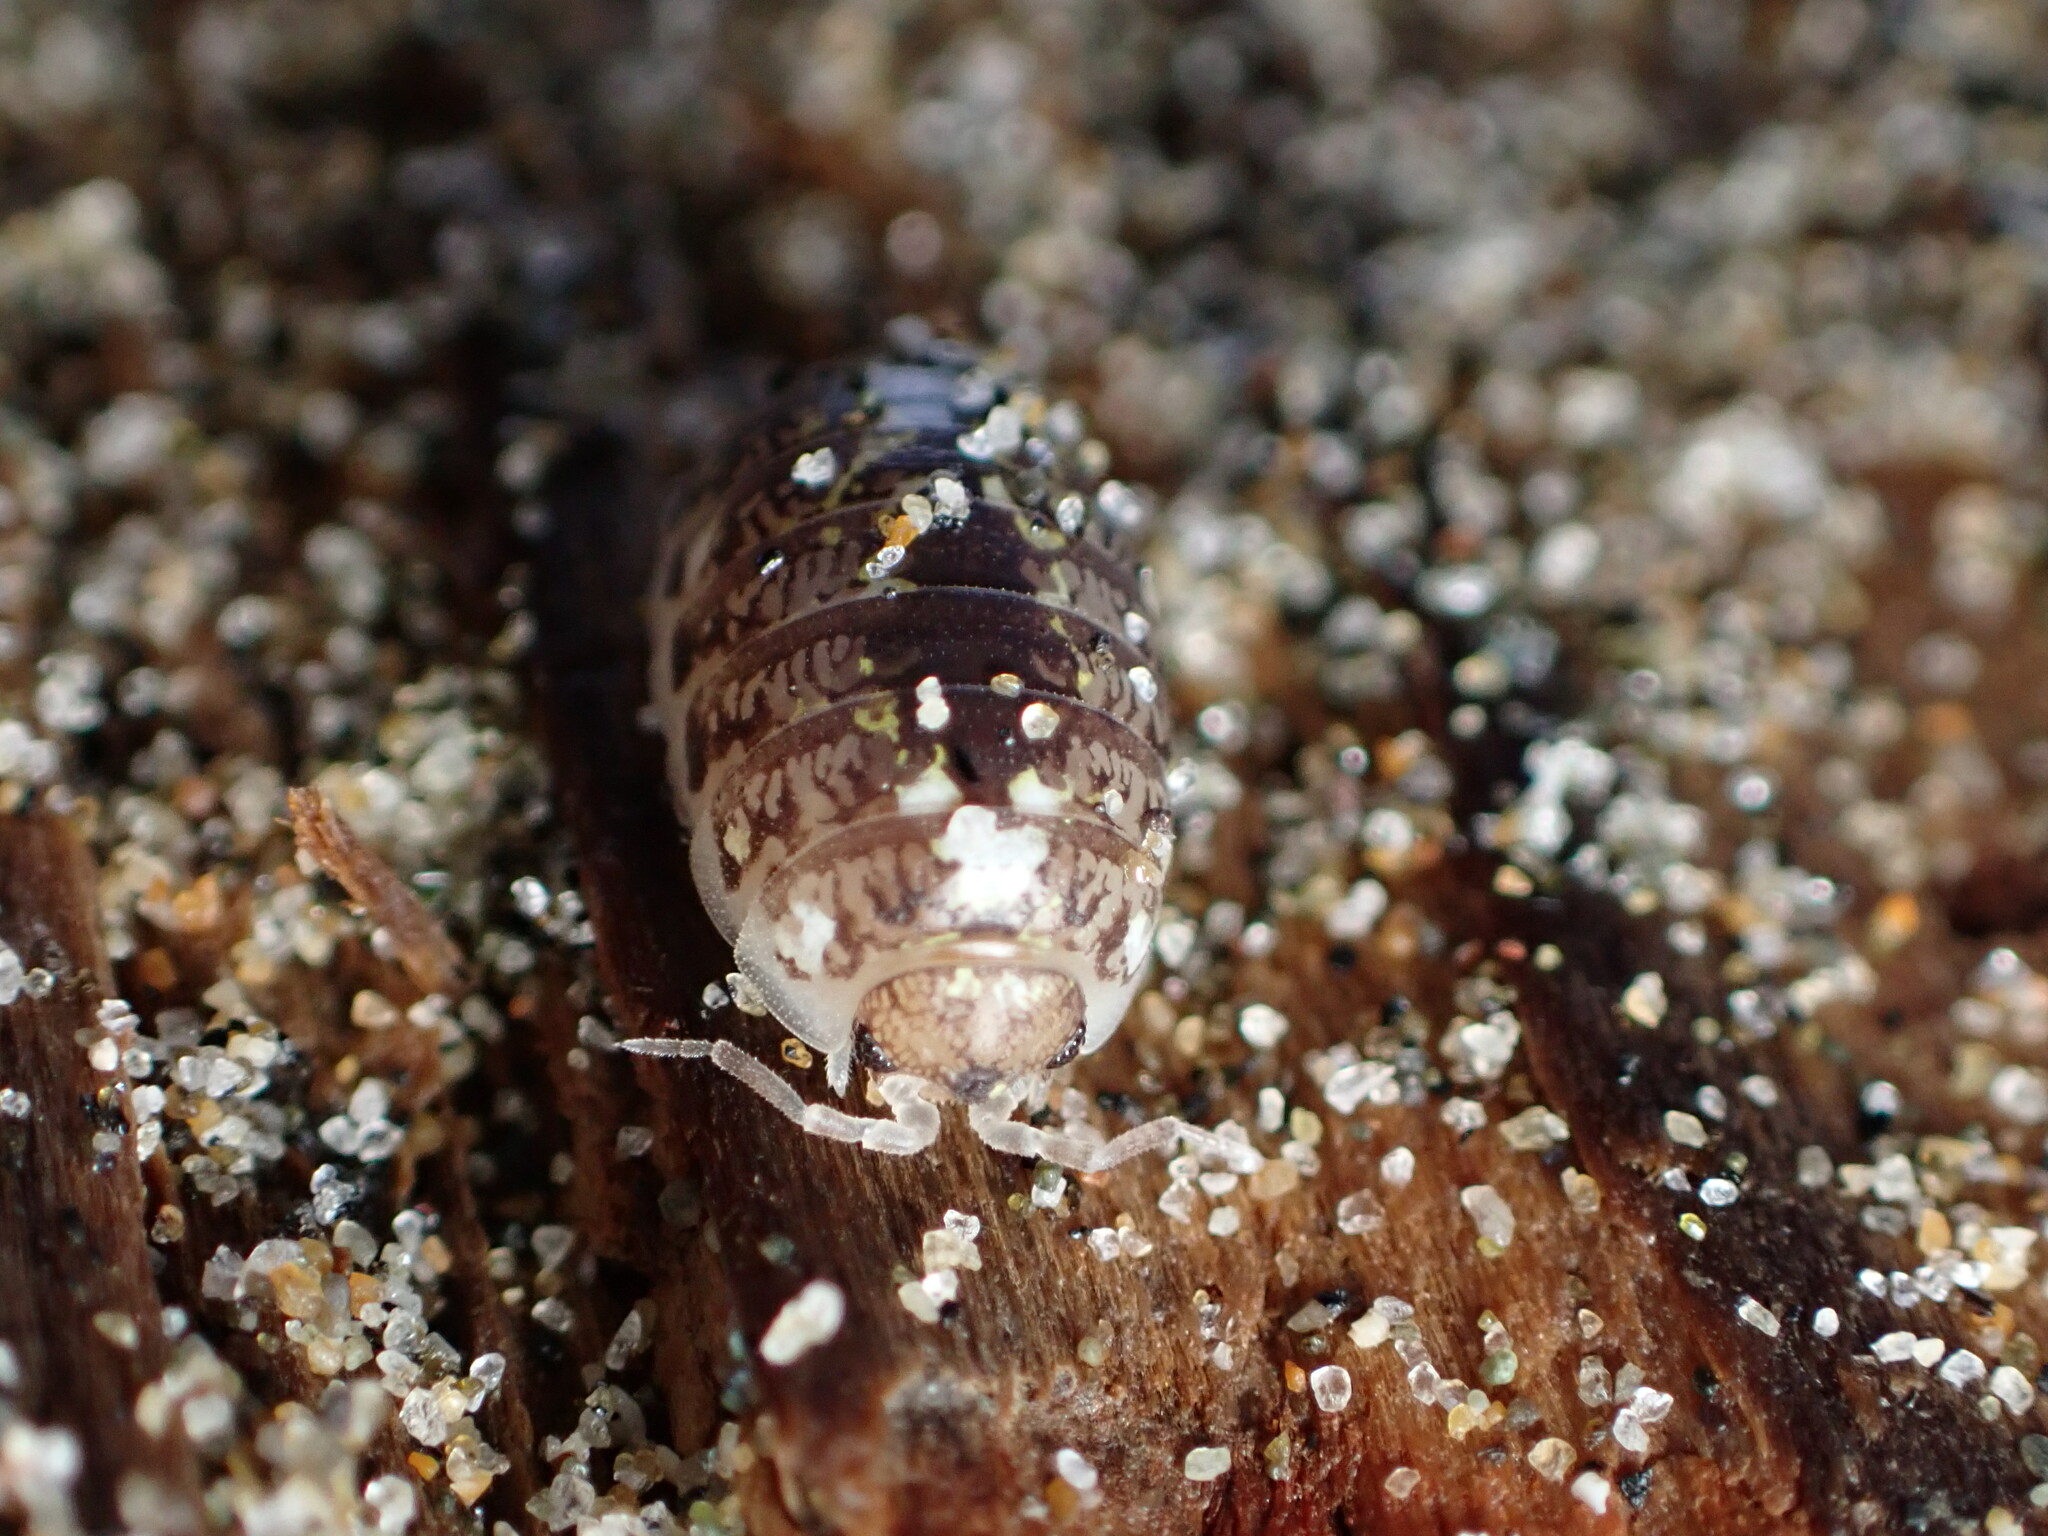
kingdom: Animalia
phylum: Arthropoda
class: Malacostraca
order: Isopoda
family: Alloniscidae
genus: Alloniscus
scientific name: Alloniscus perconvexus
